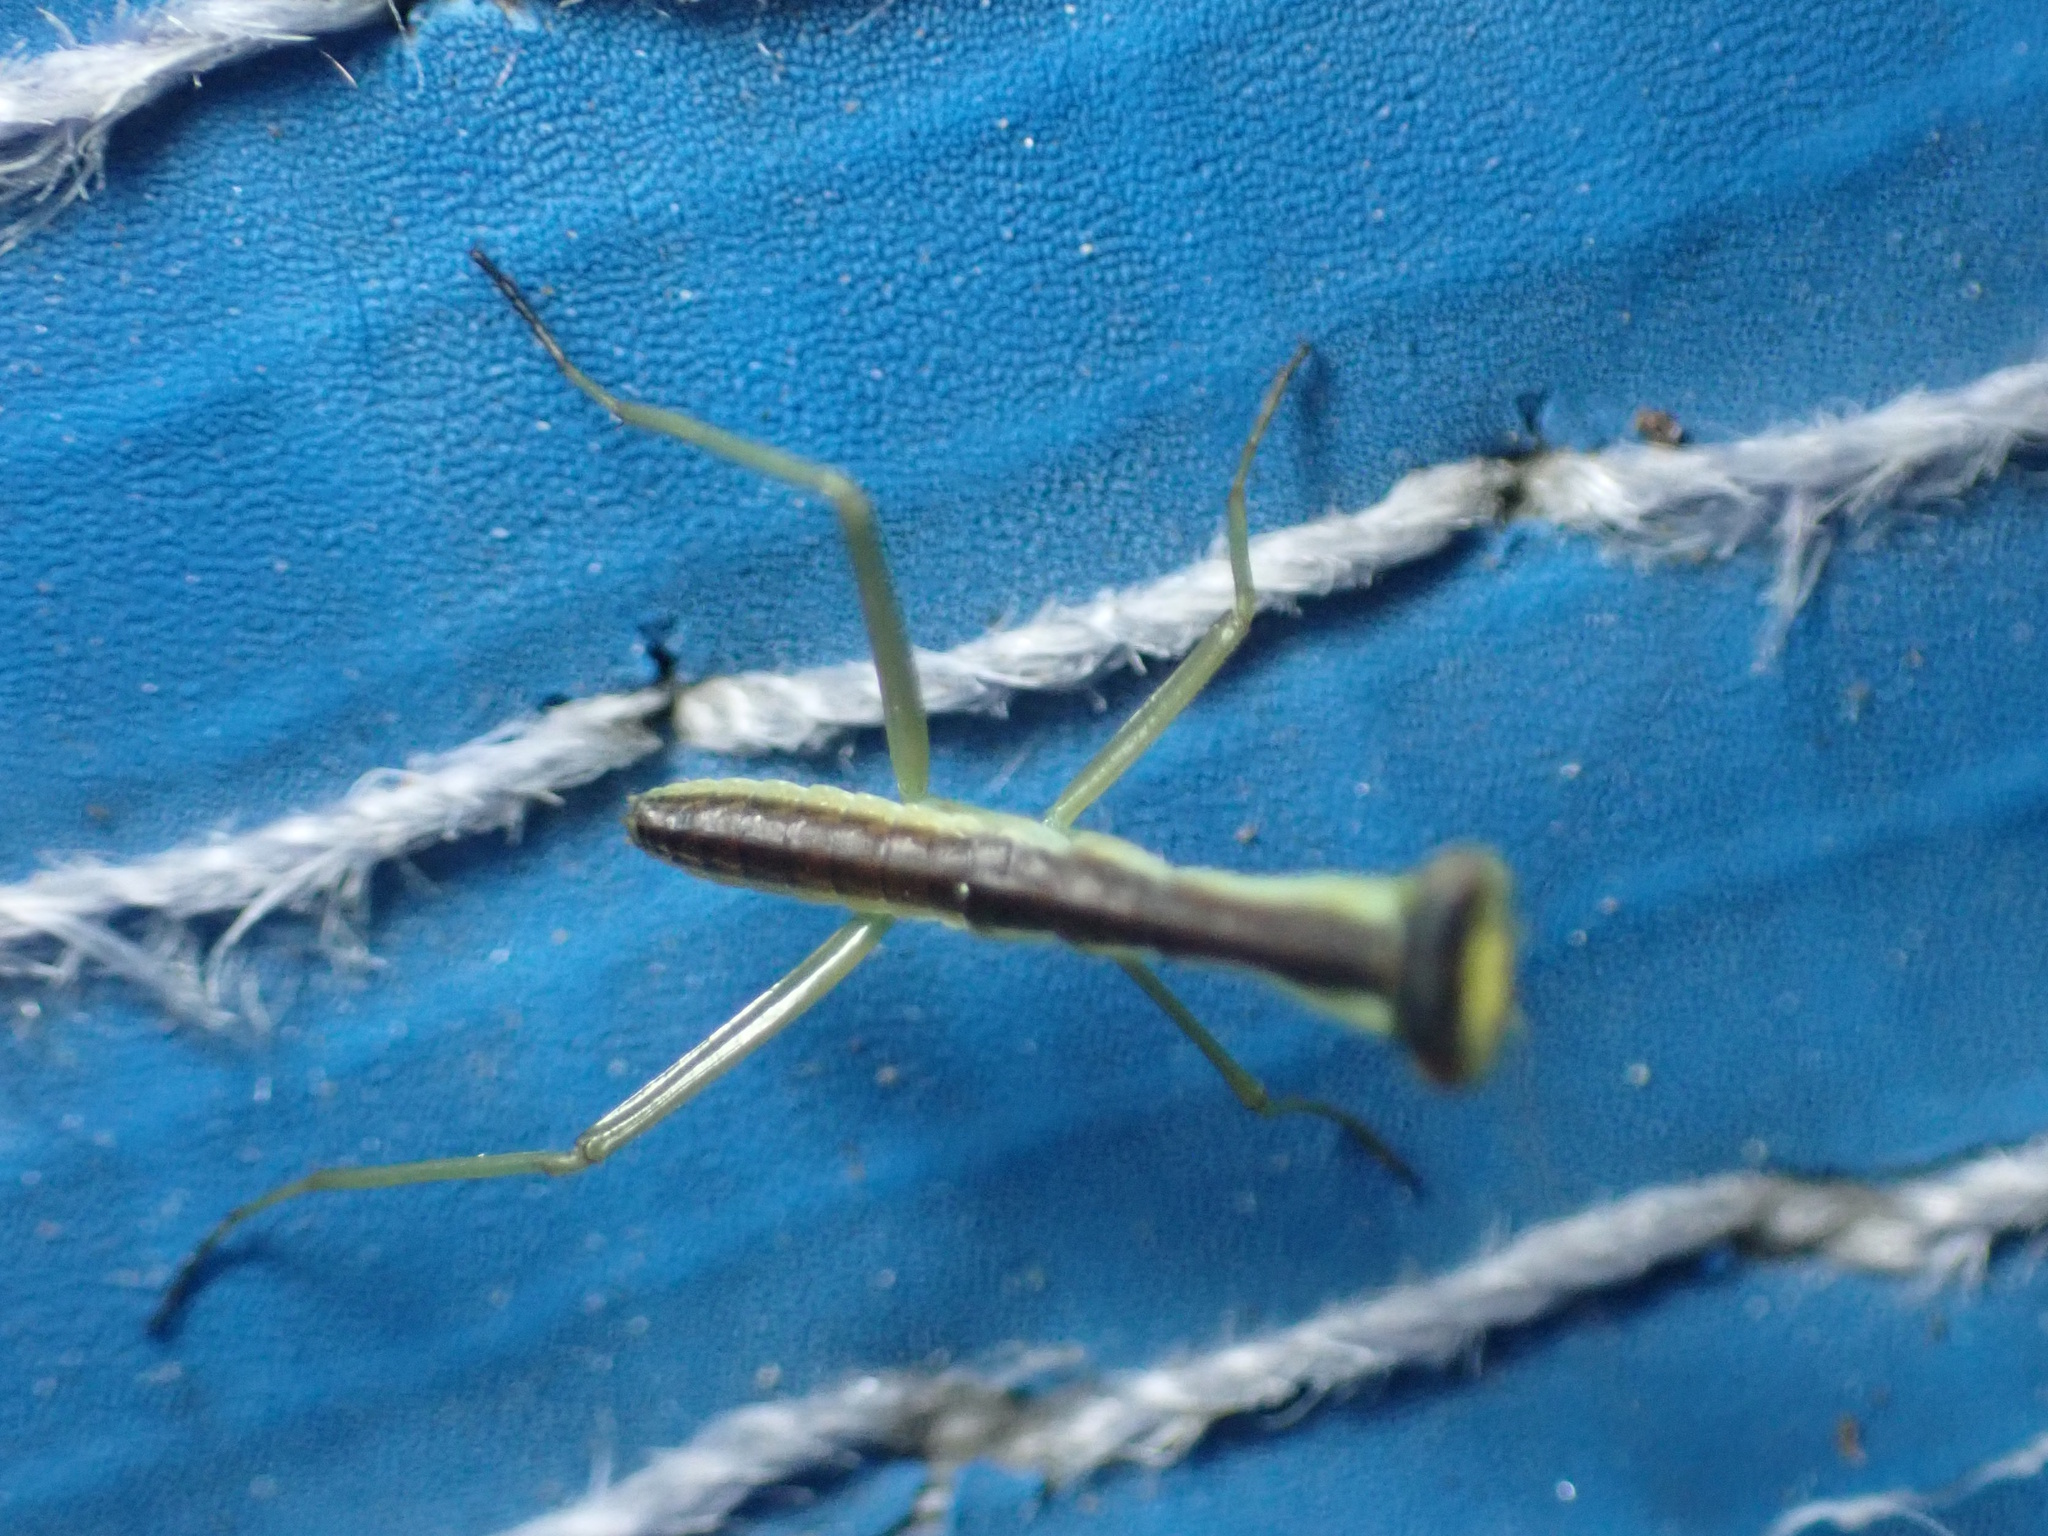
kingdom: Animalia
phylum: Arthropoda
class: Insecta
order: Mantodea
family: Mantidae
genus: Orthodera
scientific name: Orthodera novaezealandiae
